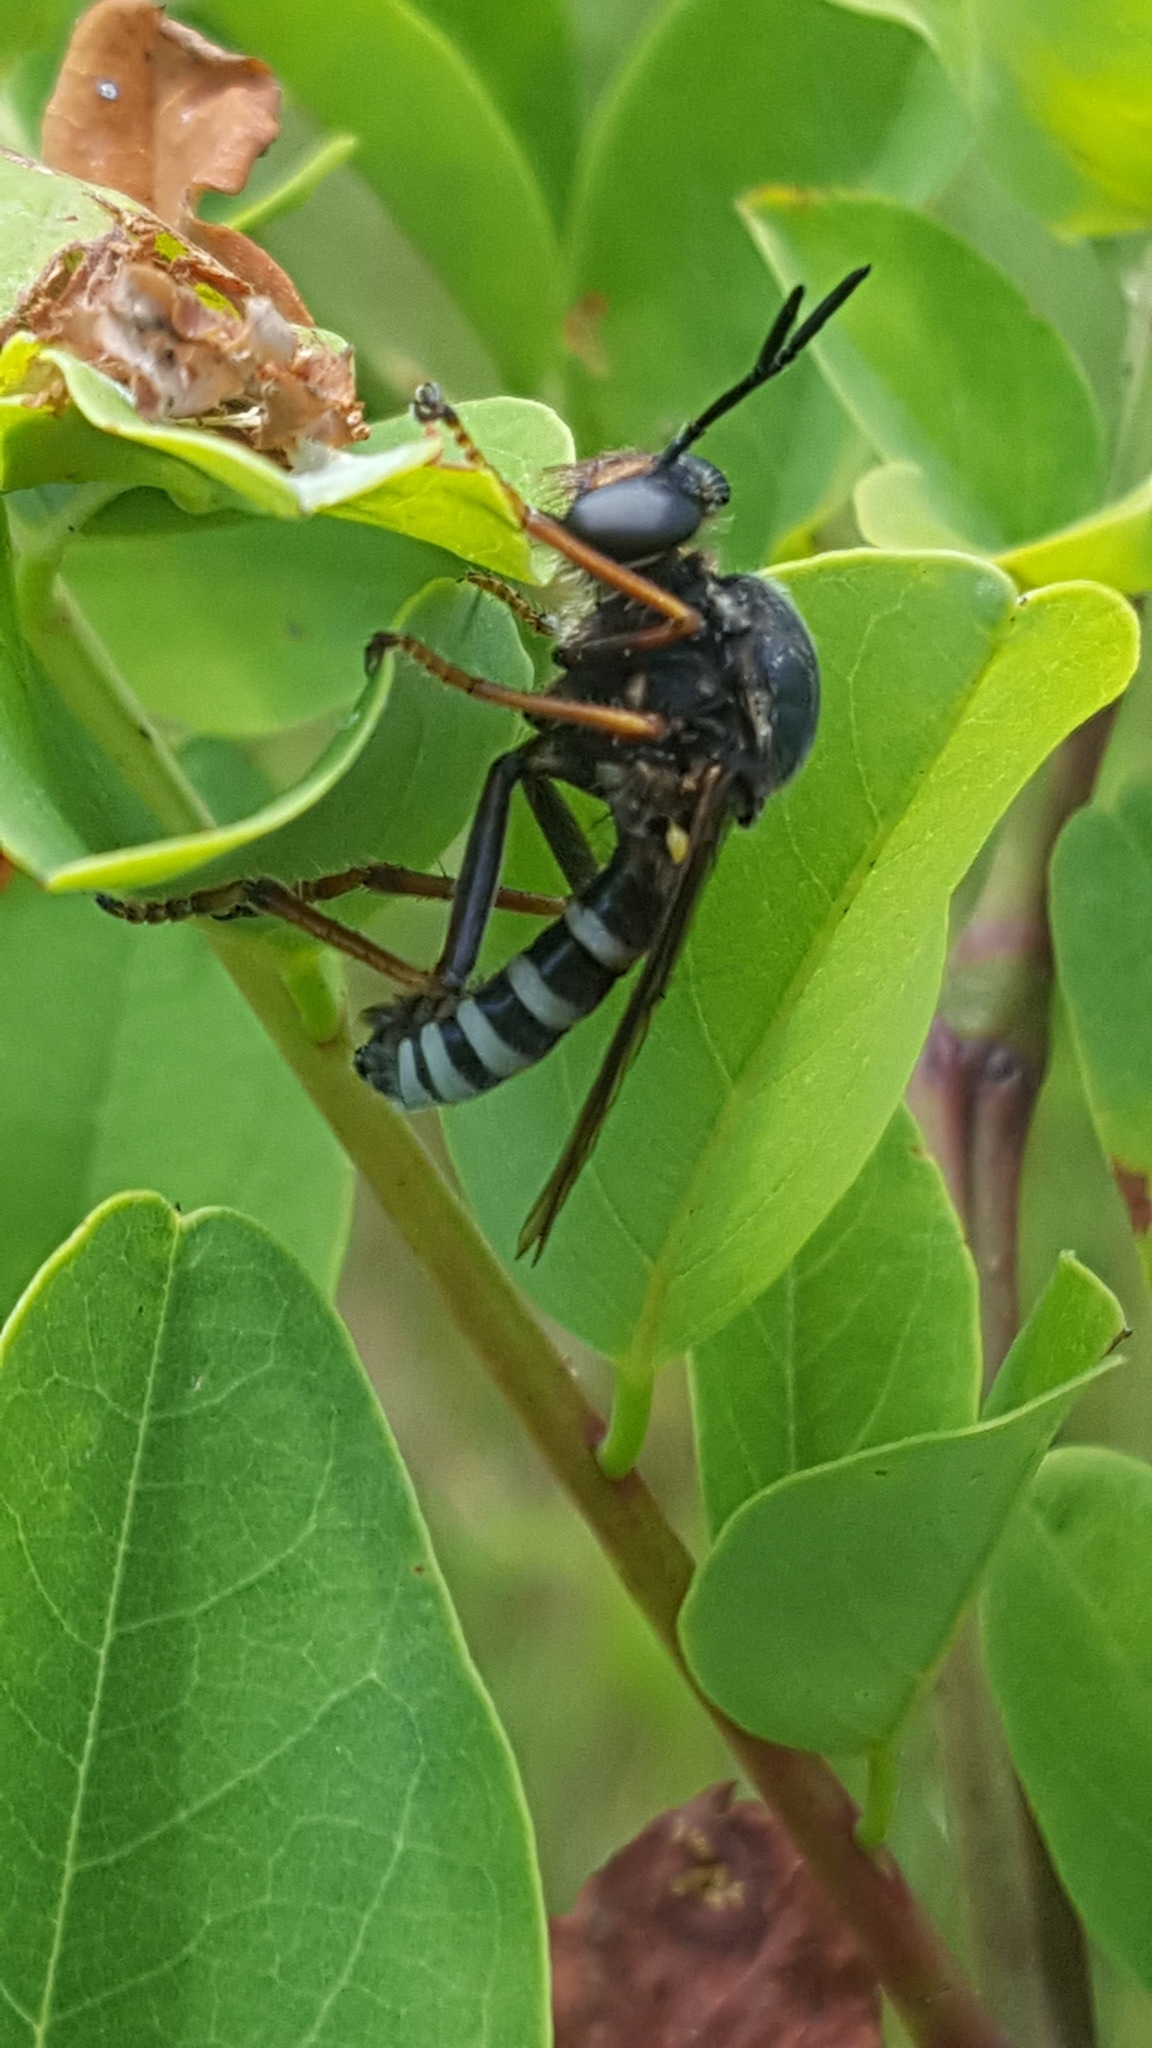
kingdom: Animalia
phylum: Arthropoda
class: Insecta
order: Diptera
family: Asilidae
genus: Ceraturgus
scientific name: Ceraturgus fasciatus
